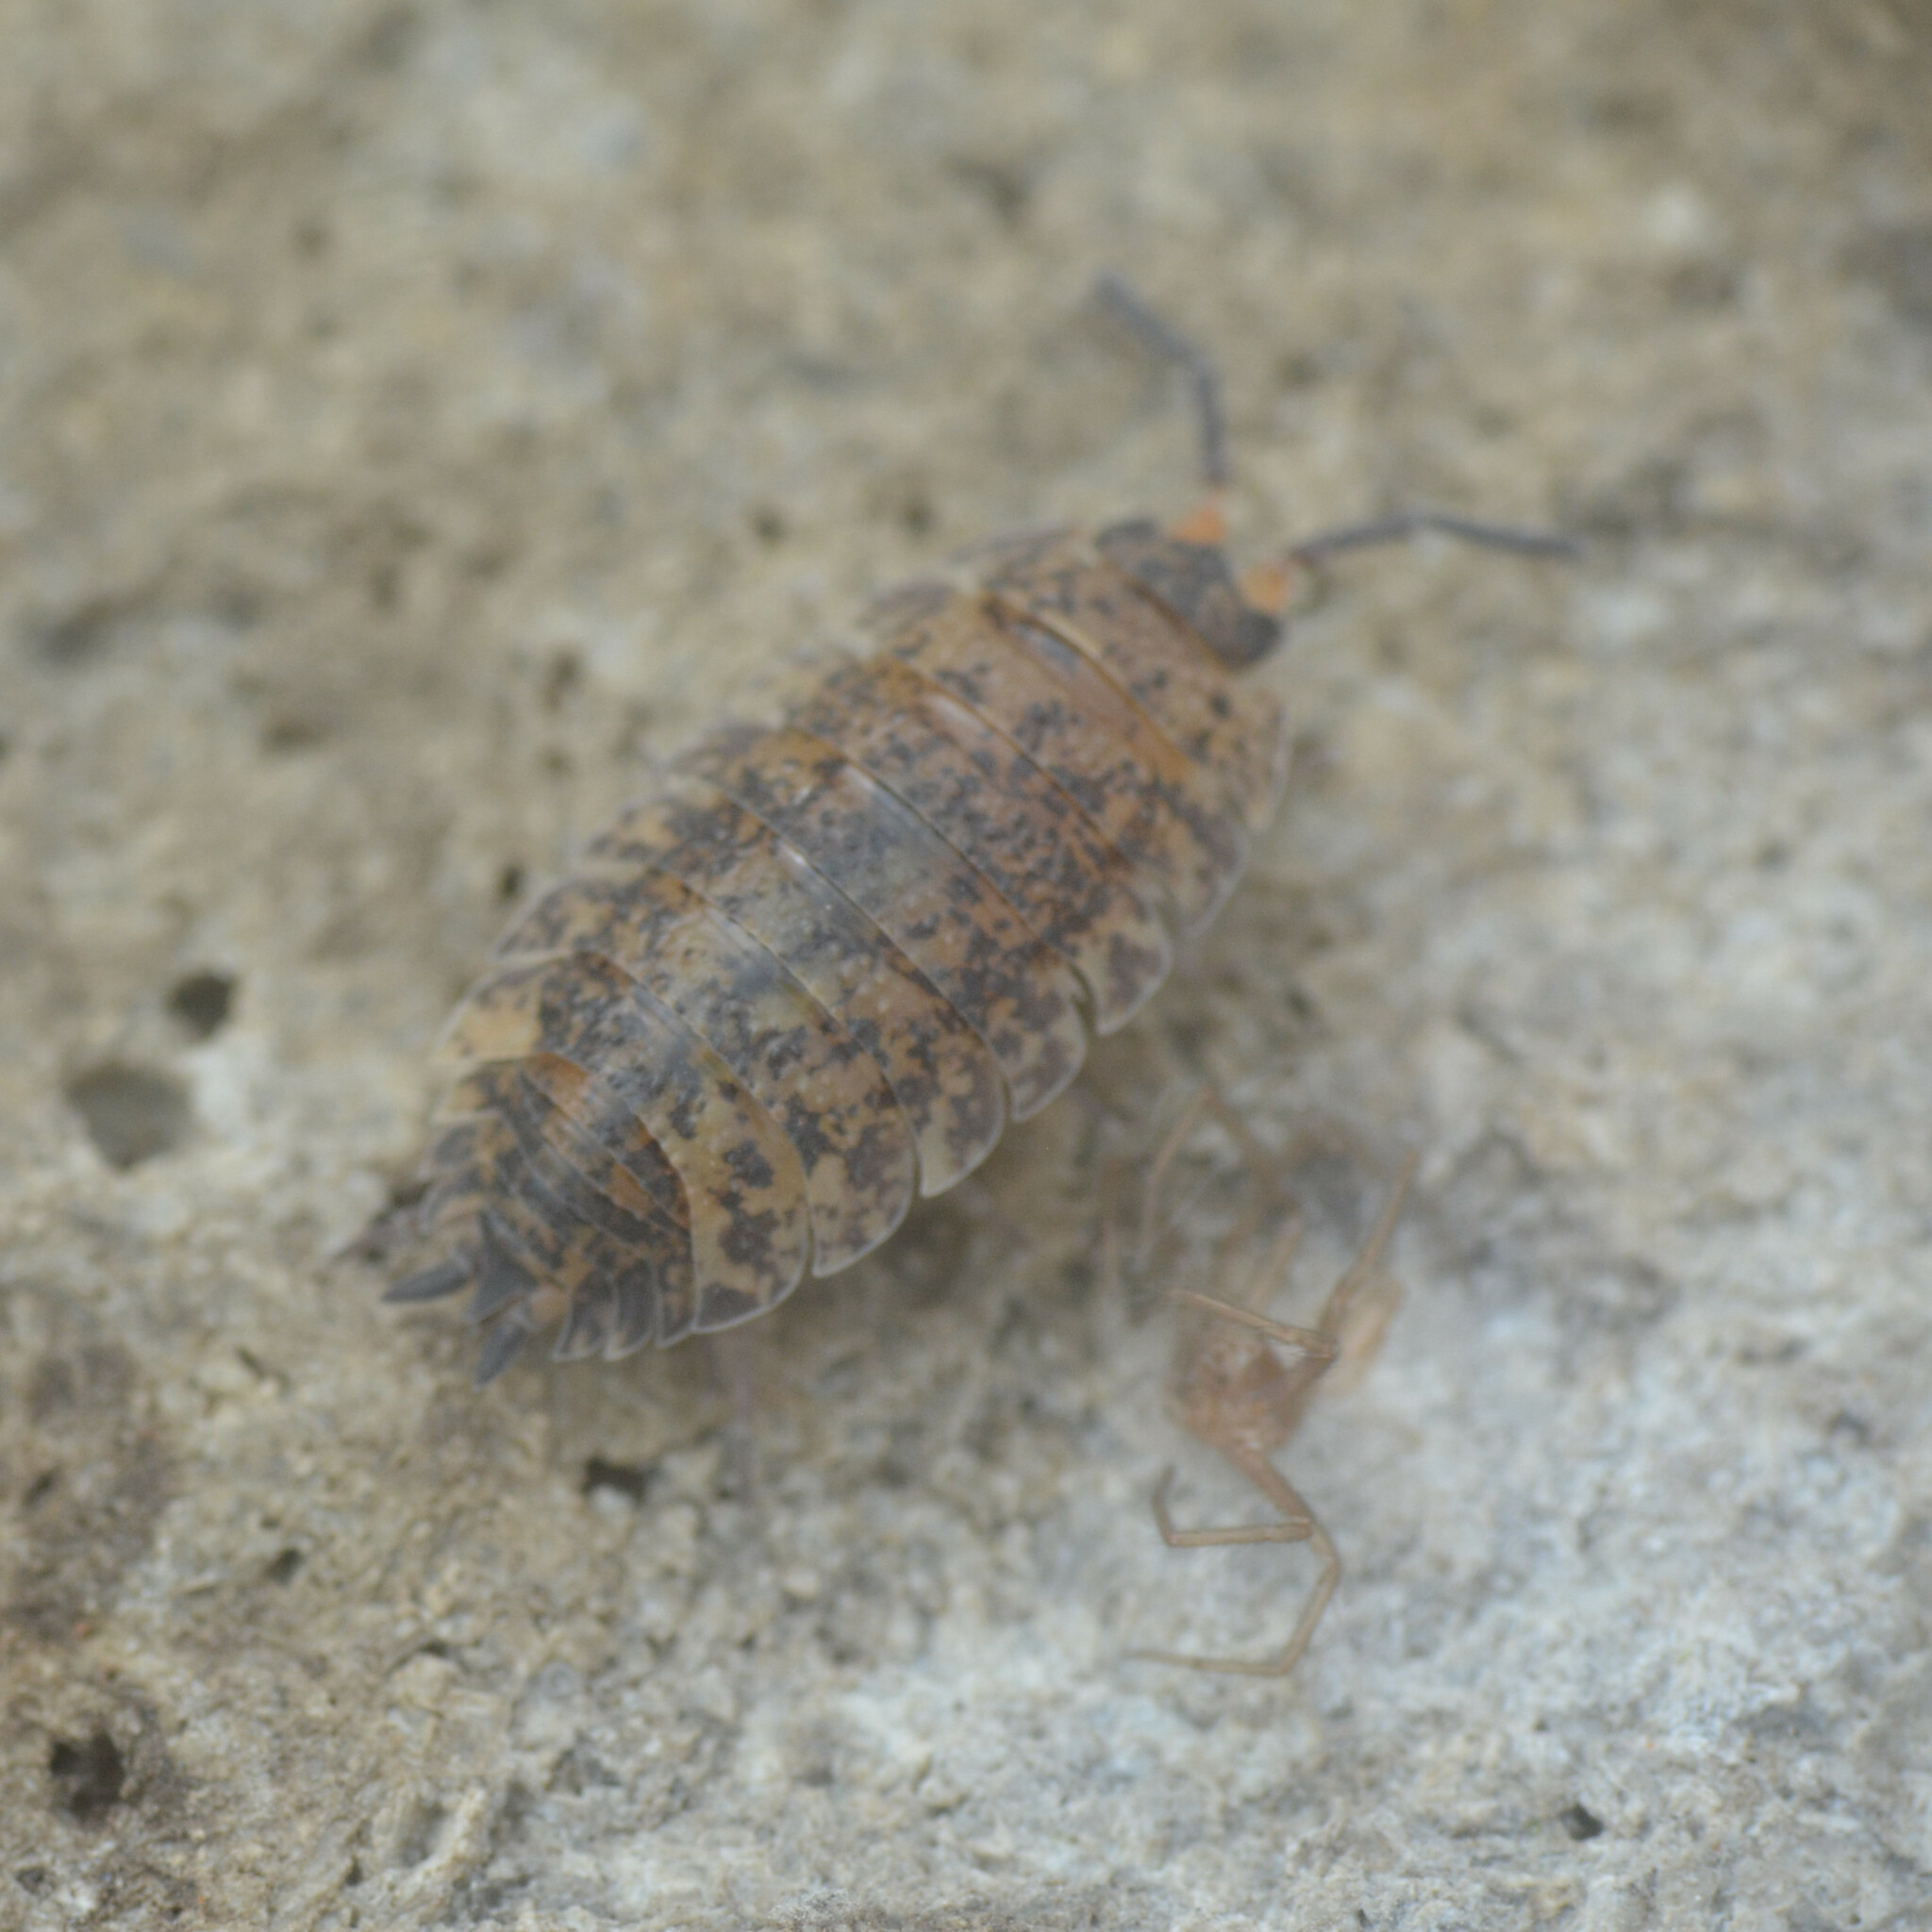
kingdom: Animalia
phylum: Arthropoda
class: Malacostraca
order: Isopoda
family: Porcellionidae
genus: Porcellio
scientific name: Porcellio scaber
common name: Common rough woodlouse
